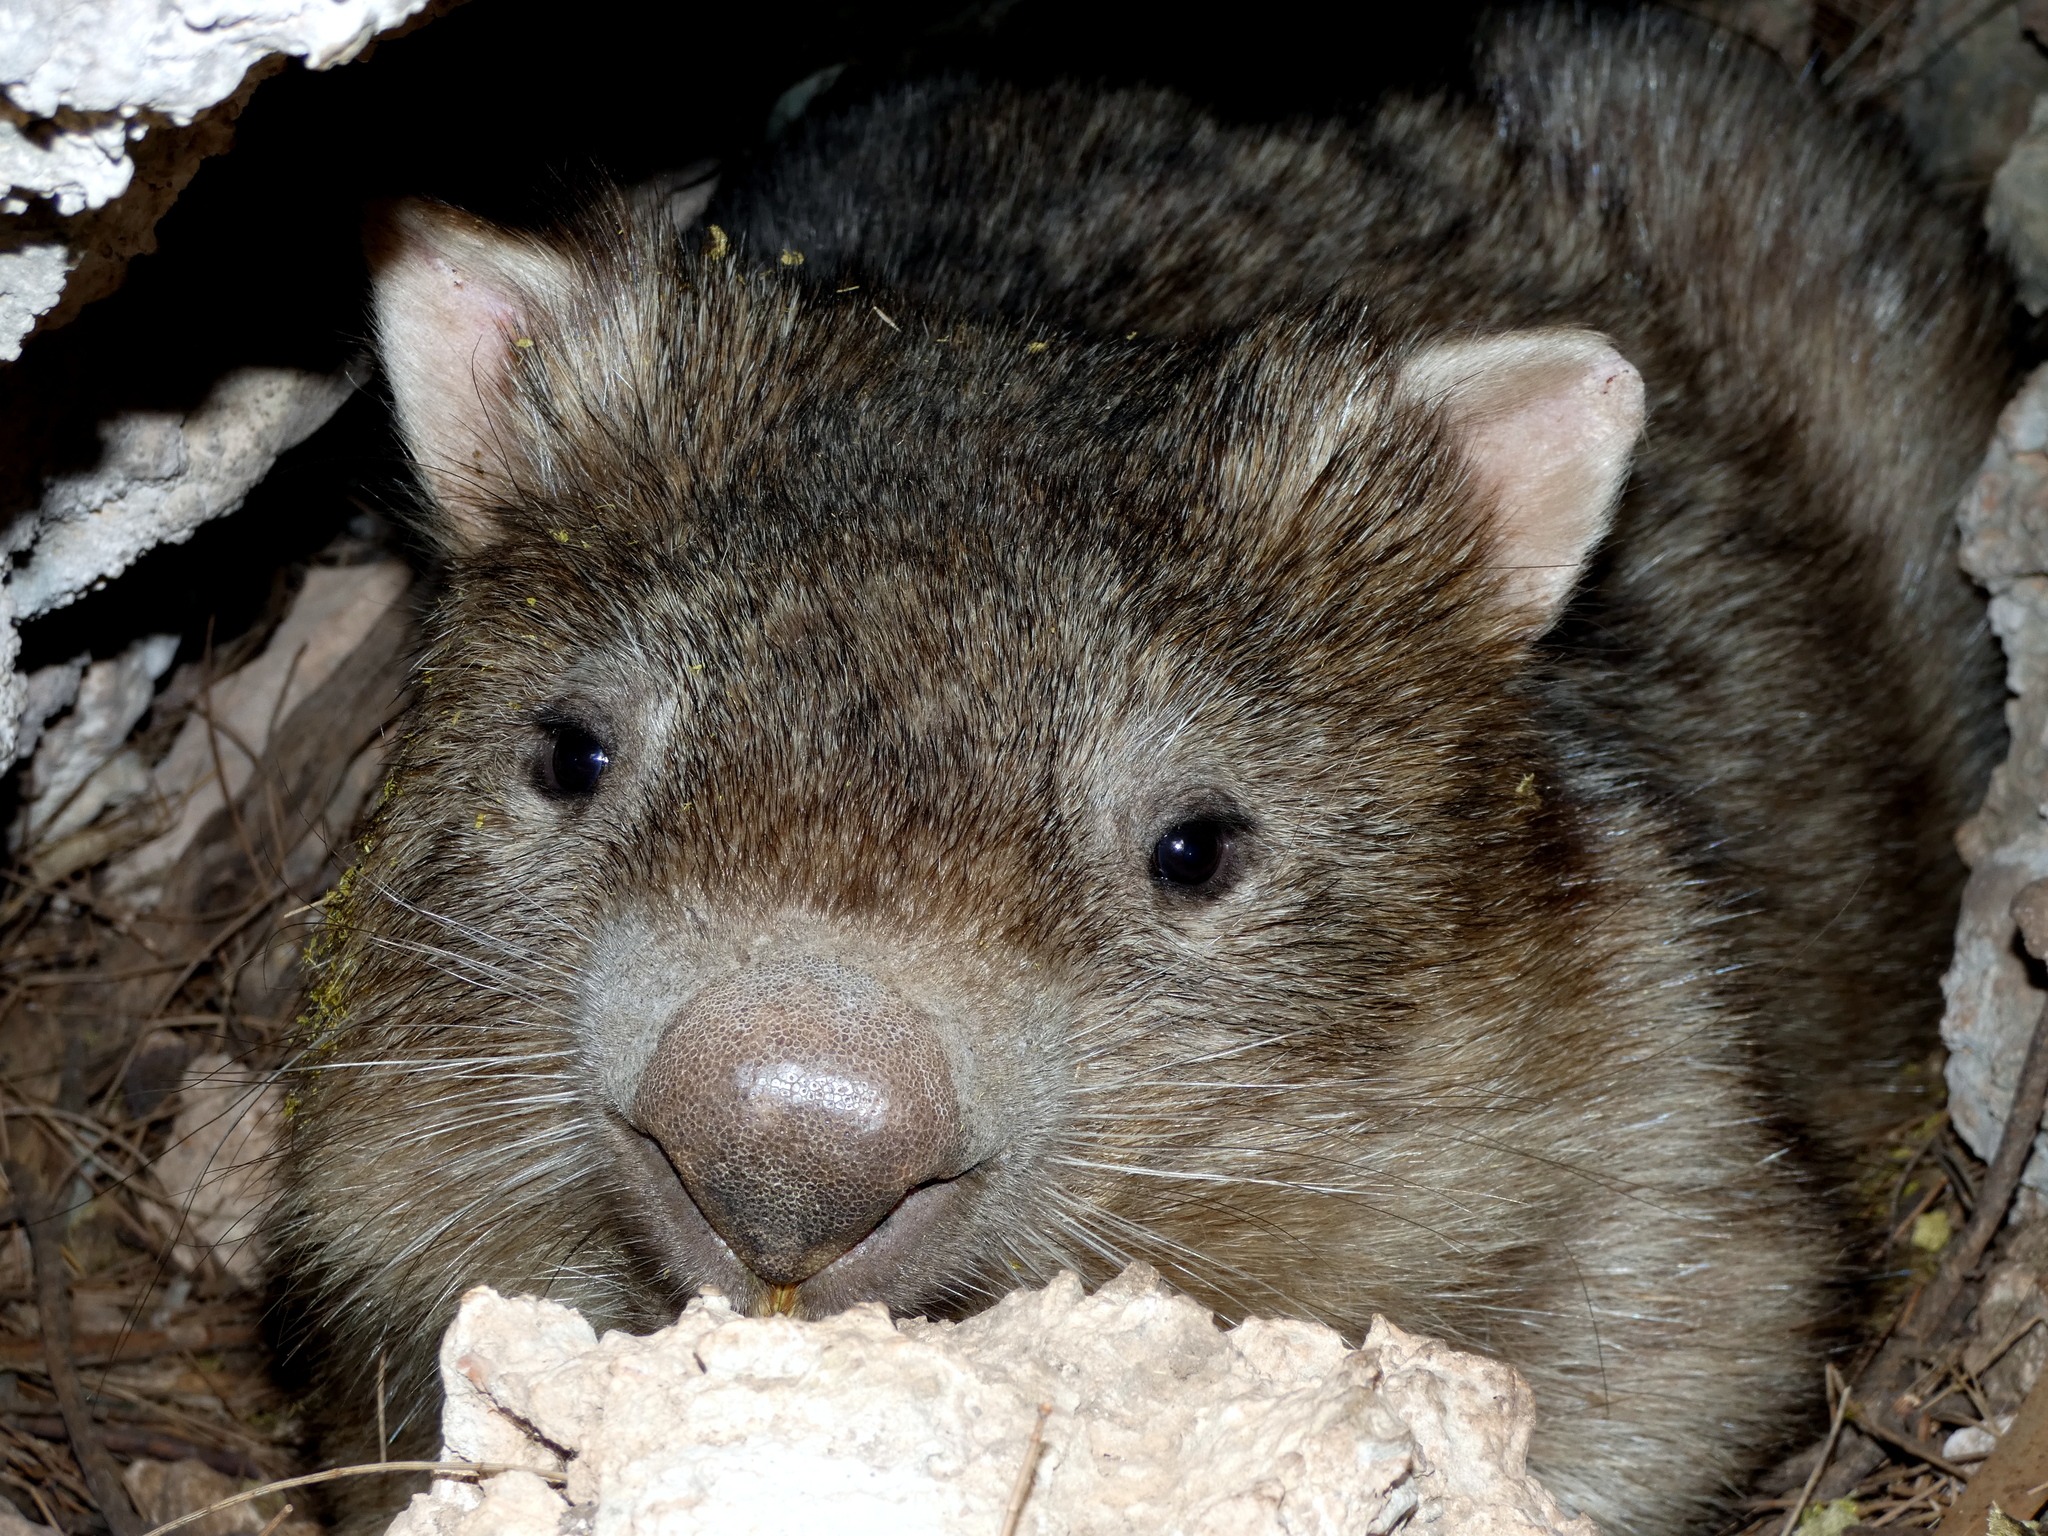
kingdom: Animalia
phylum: Chordata
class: Mammalia
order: Diprotodontia
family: Vombatidae
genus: Vombatus
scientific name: Vombatus ursinus
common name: Common wombat
